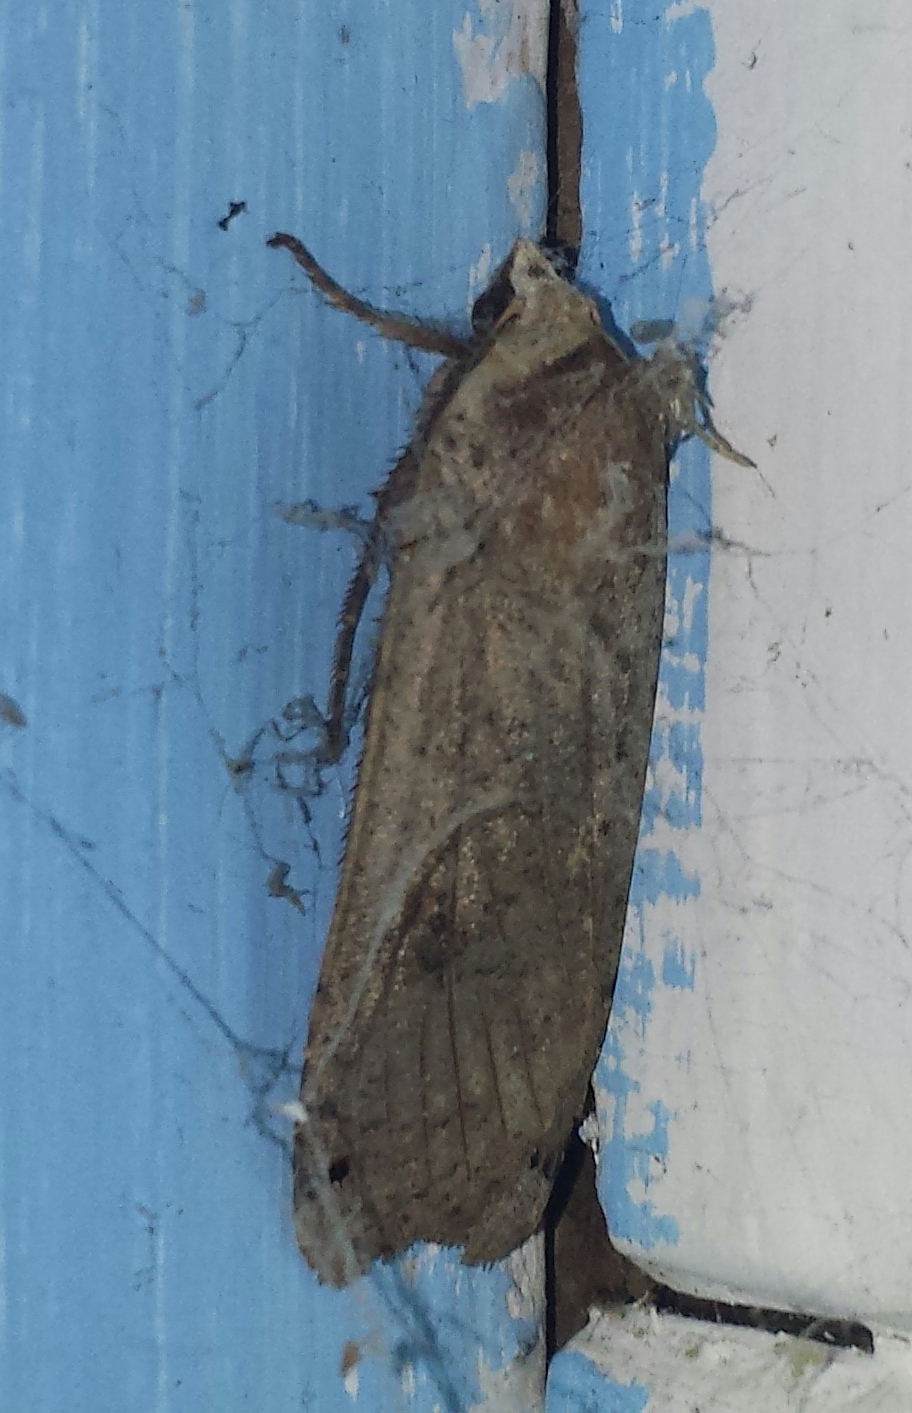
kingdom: Animalia
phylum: Arthropoda
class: Insecta
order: Lepidoptera
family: Noctuidae
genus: Noctua
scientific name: Noctua pronuba
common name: Large yellow underwing
